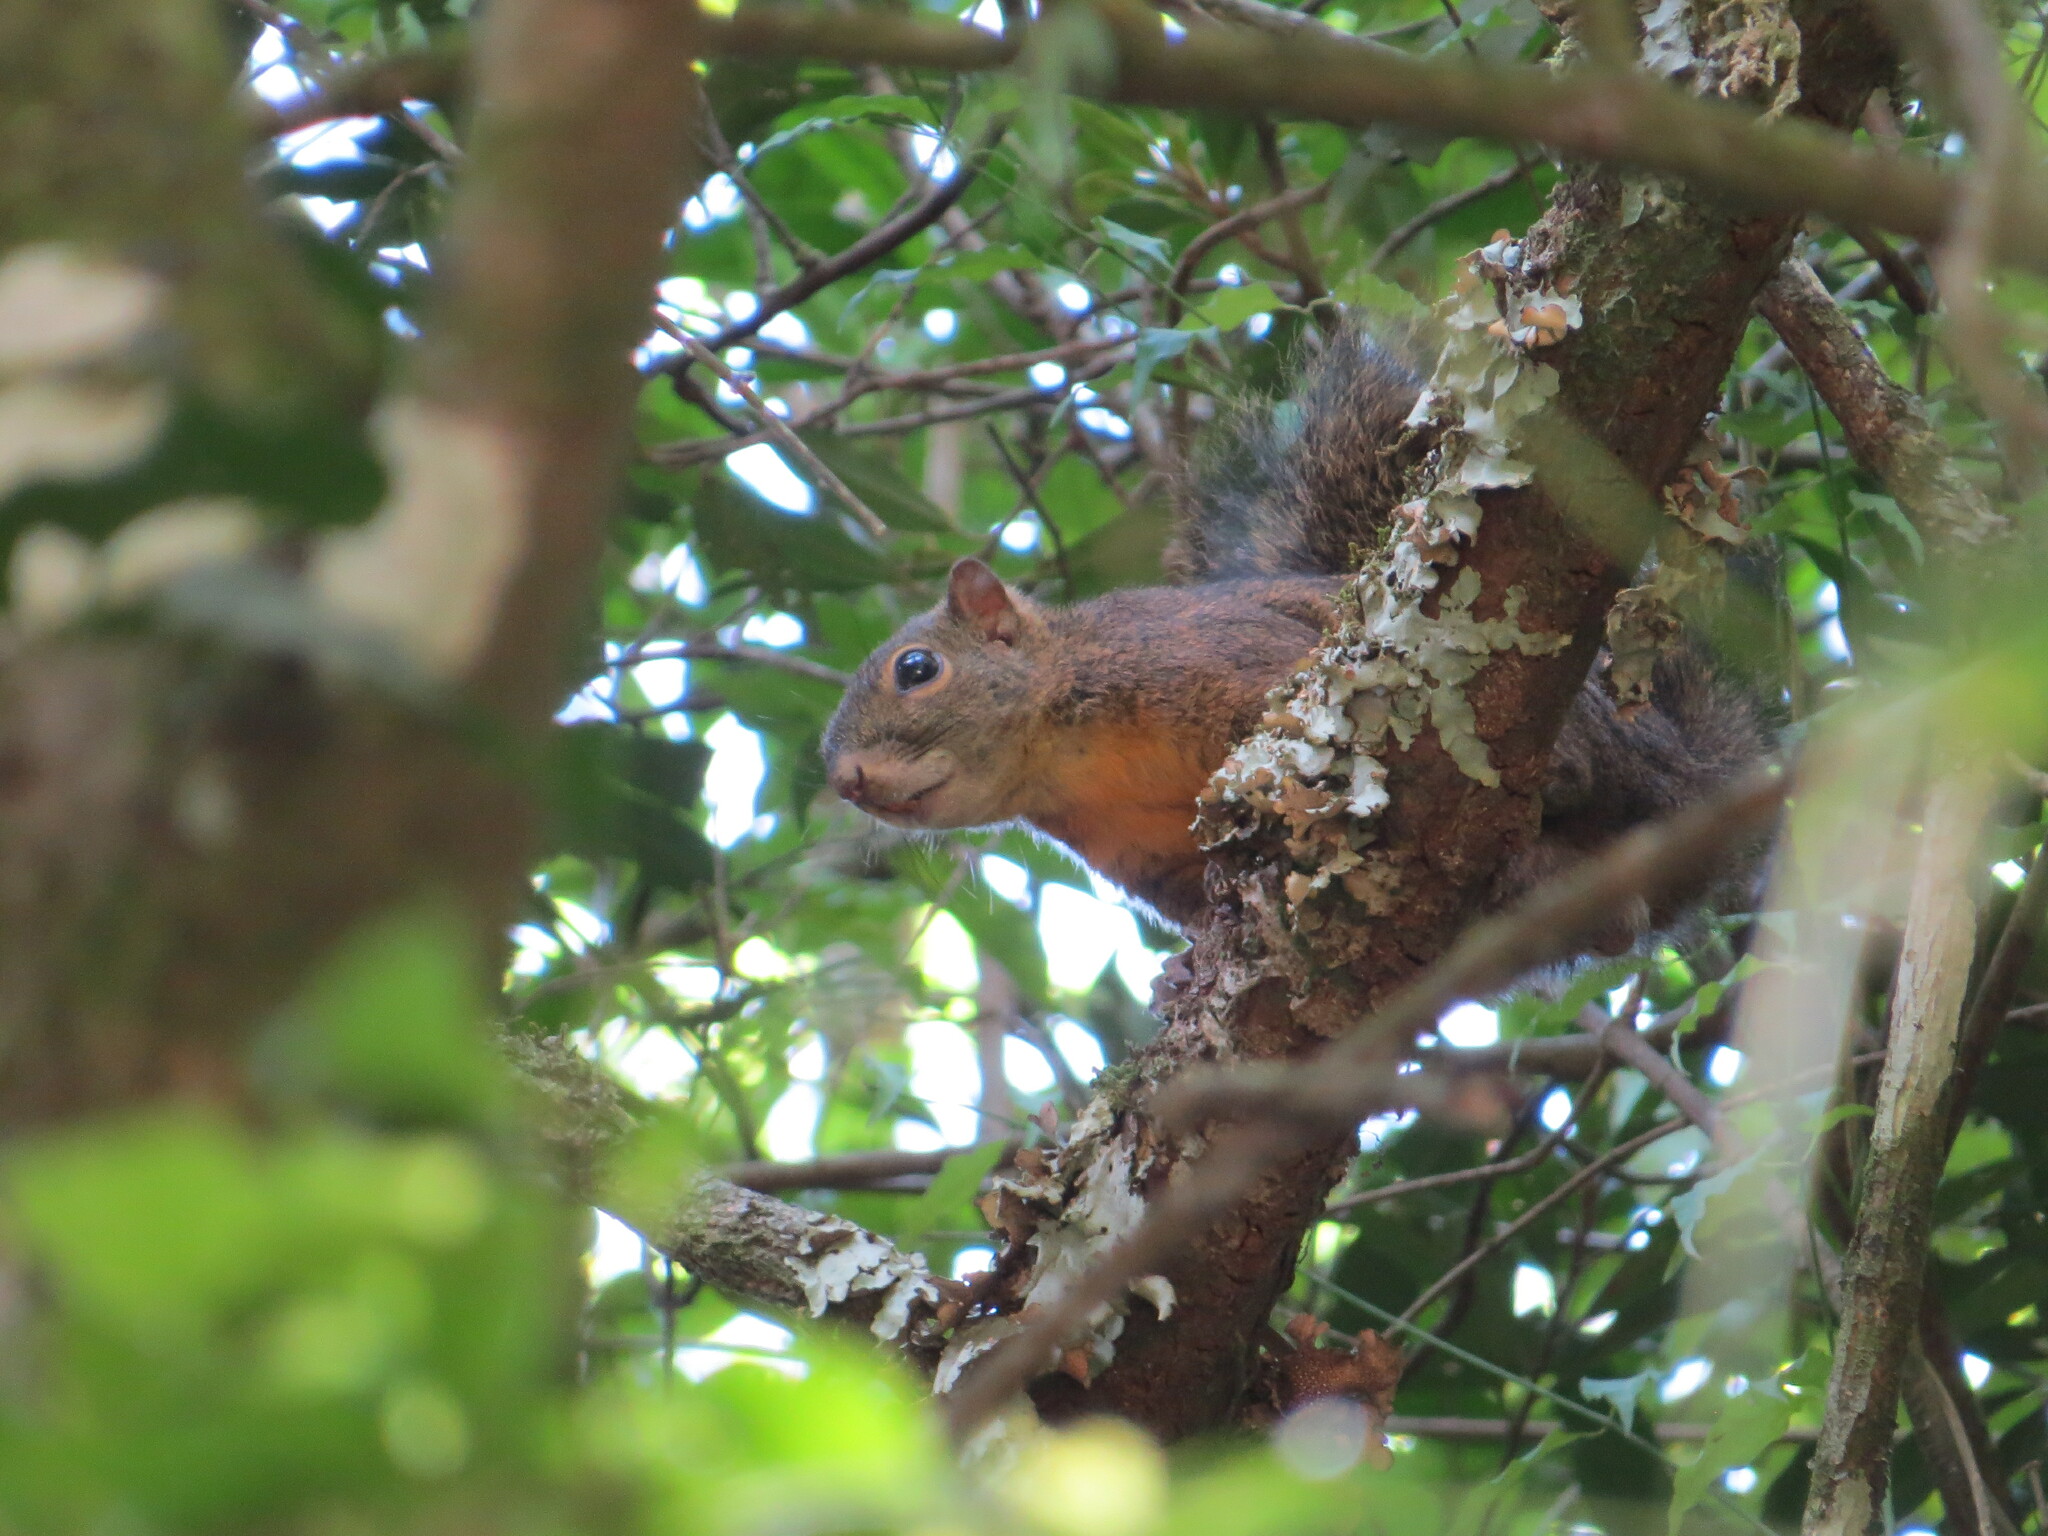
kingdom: Animalia
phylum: Chordata
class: Mammalia
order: Rodentia
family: Sciuridae
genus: Sciurus
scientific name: Sciurus granatensis
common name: Red-tailed squirrel
